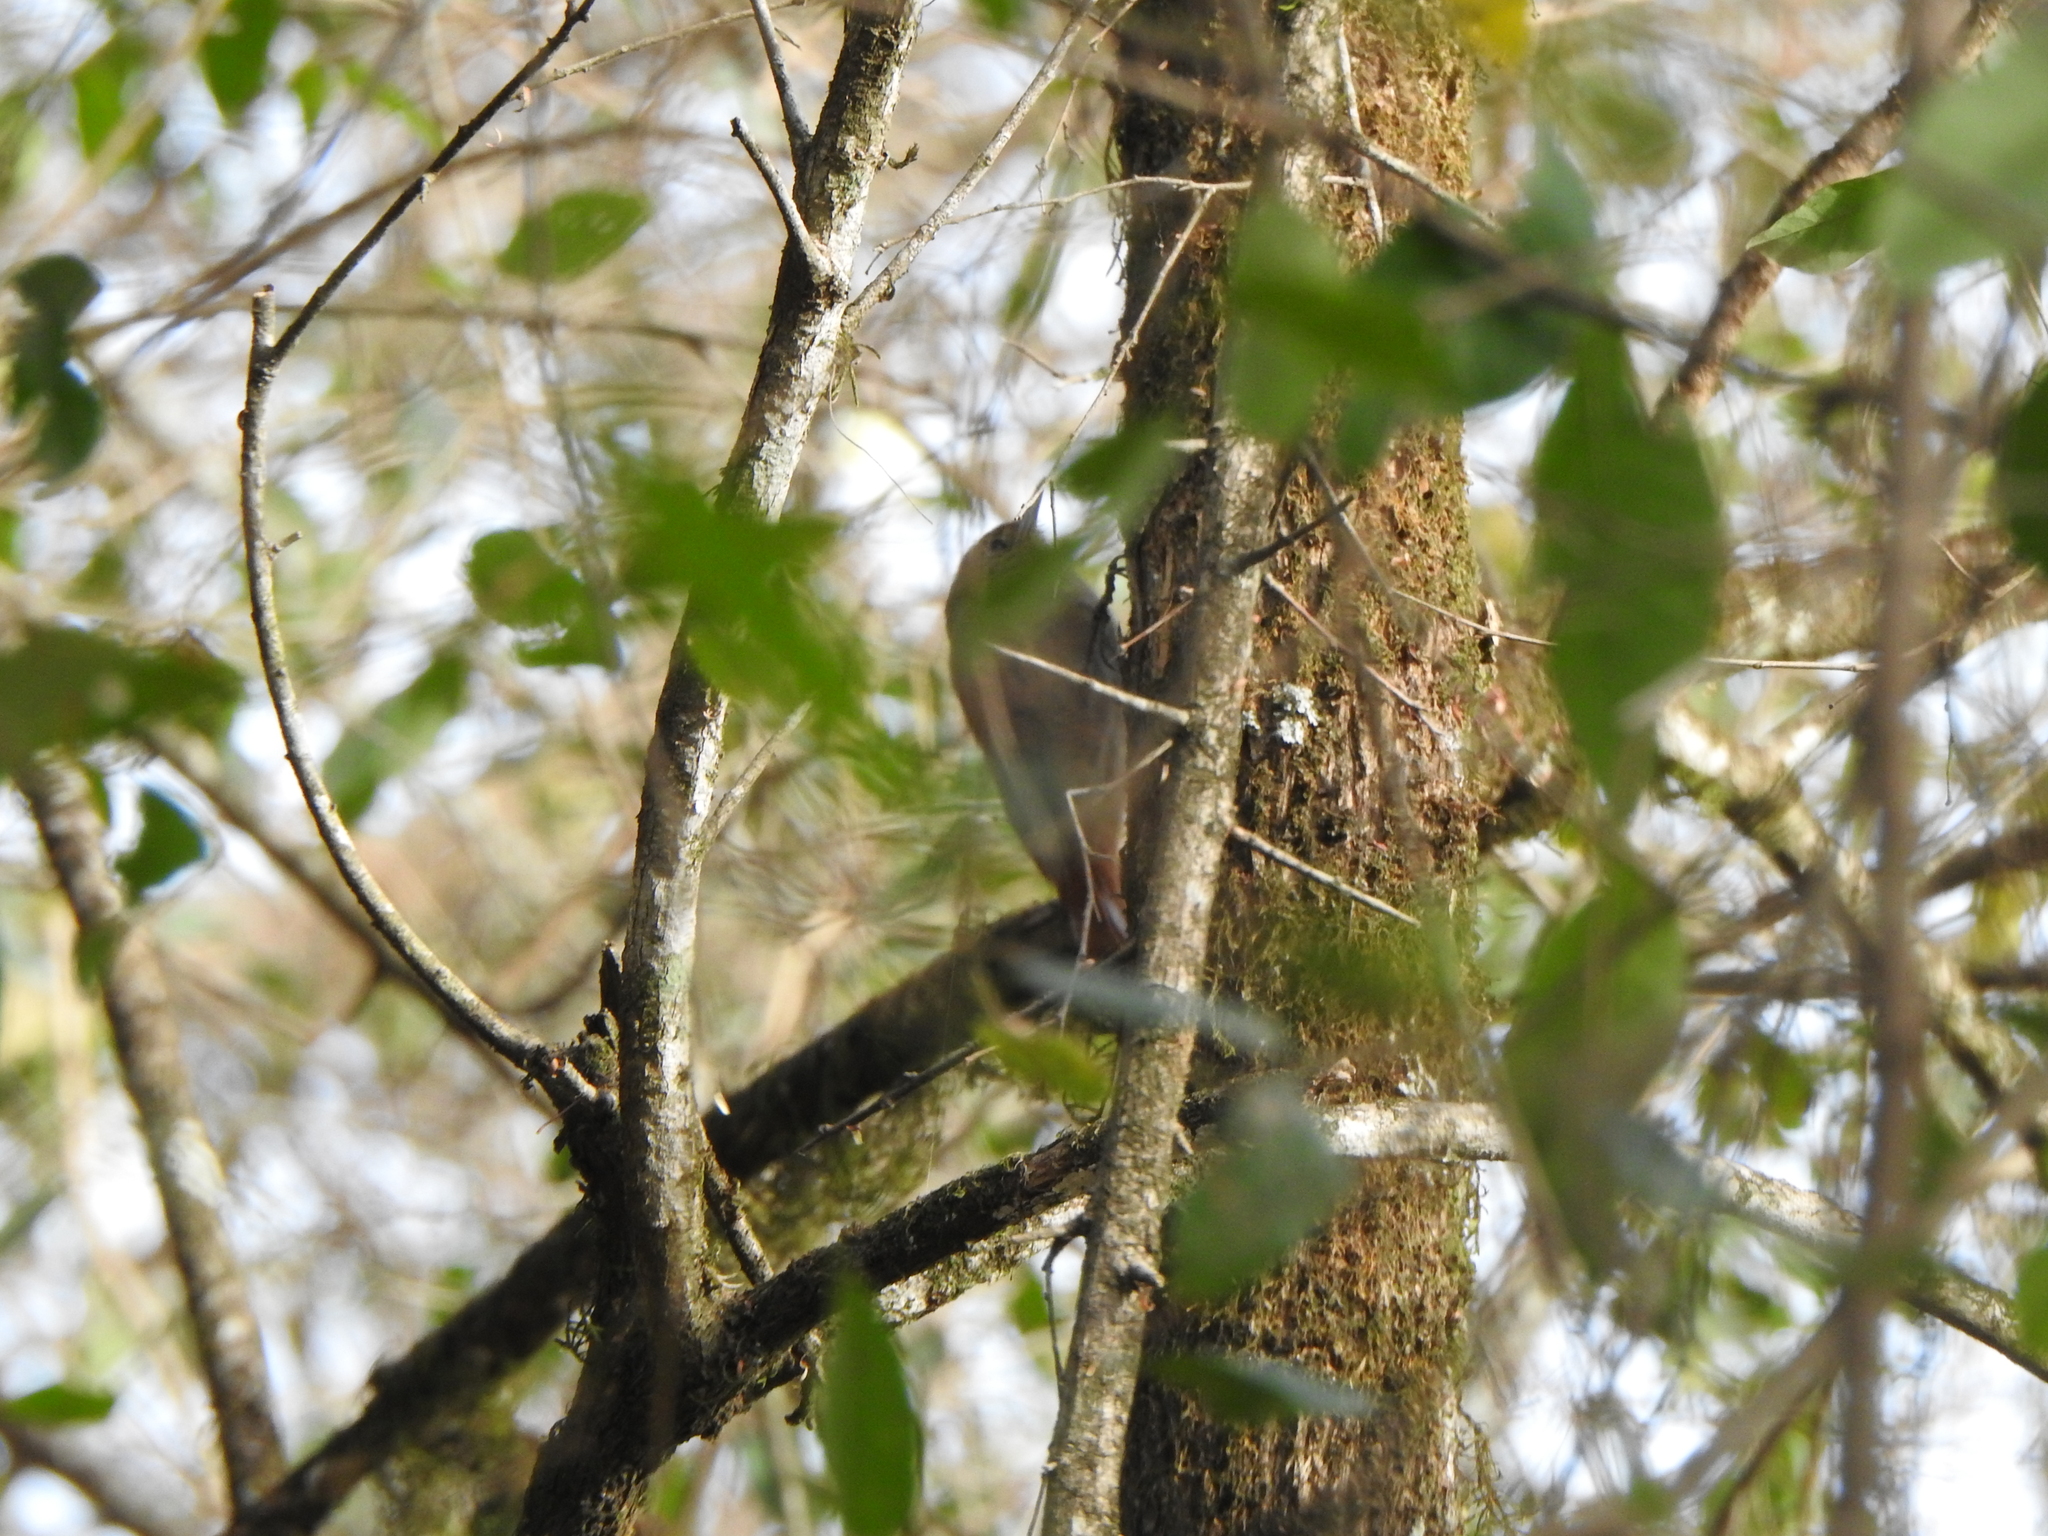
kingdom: Animalia
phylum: Chordata
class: Aves
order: Passeriformes
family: Furnariidae
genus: Sittasomus
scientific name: Sittasomus griseicapillus
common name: Olivaceous woodcreeper
